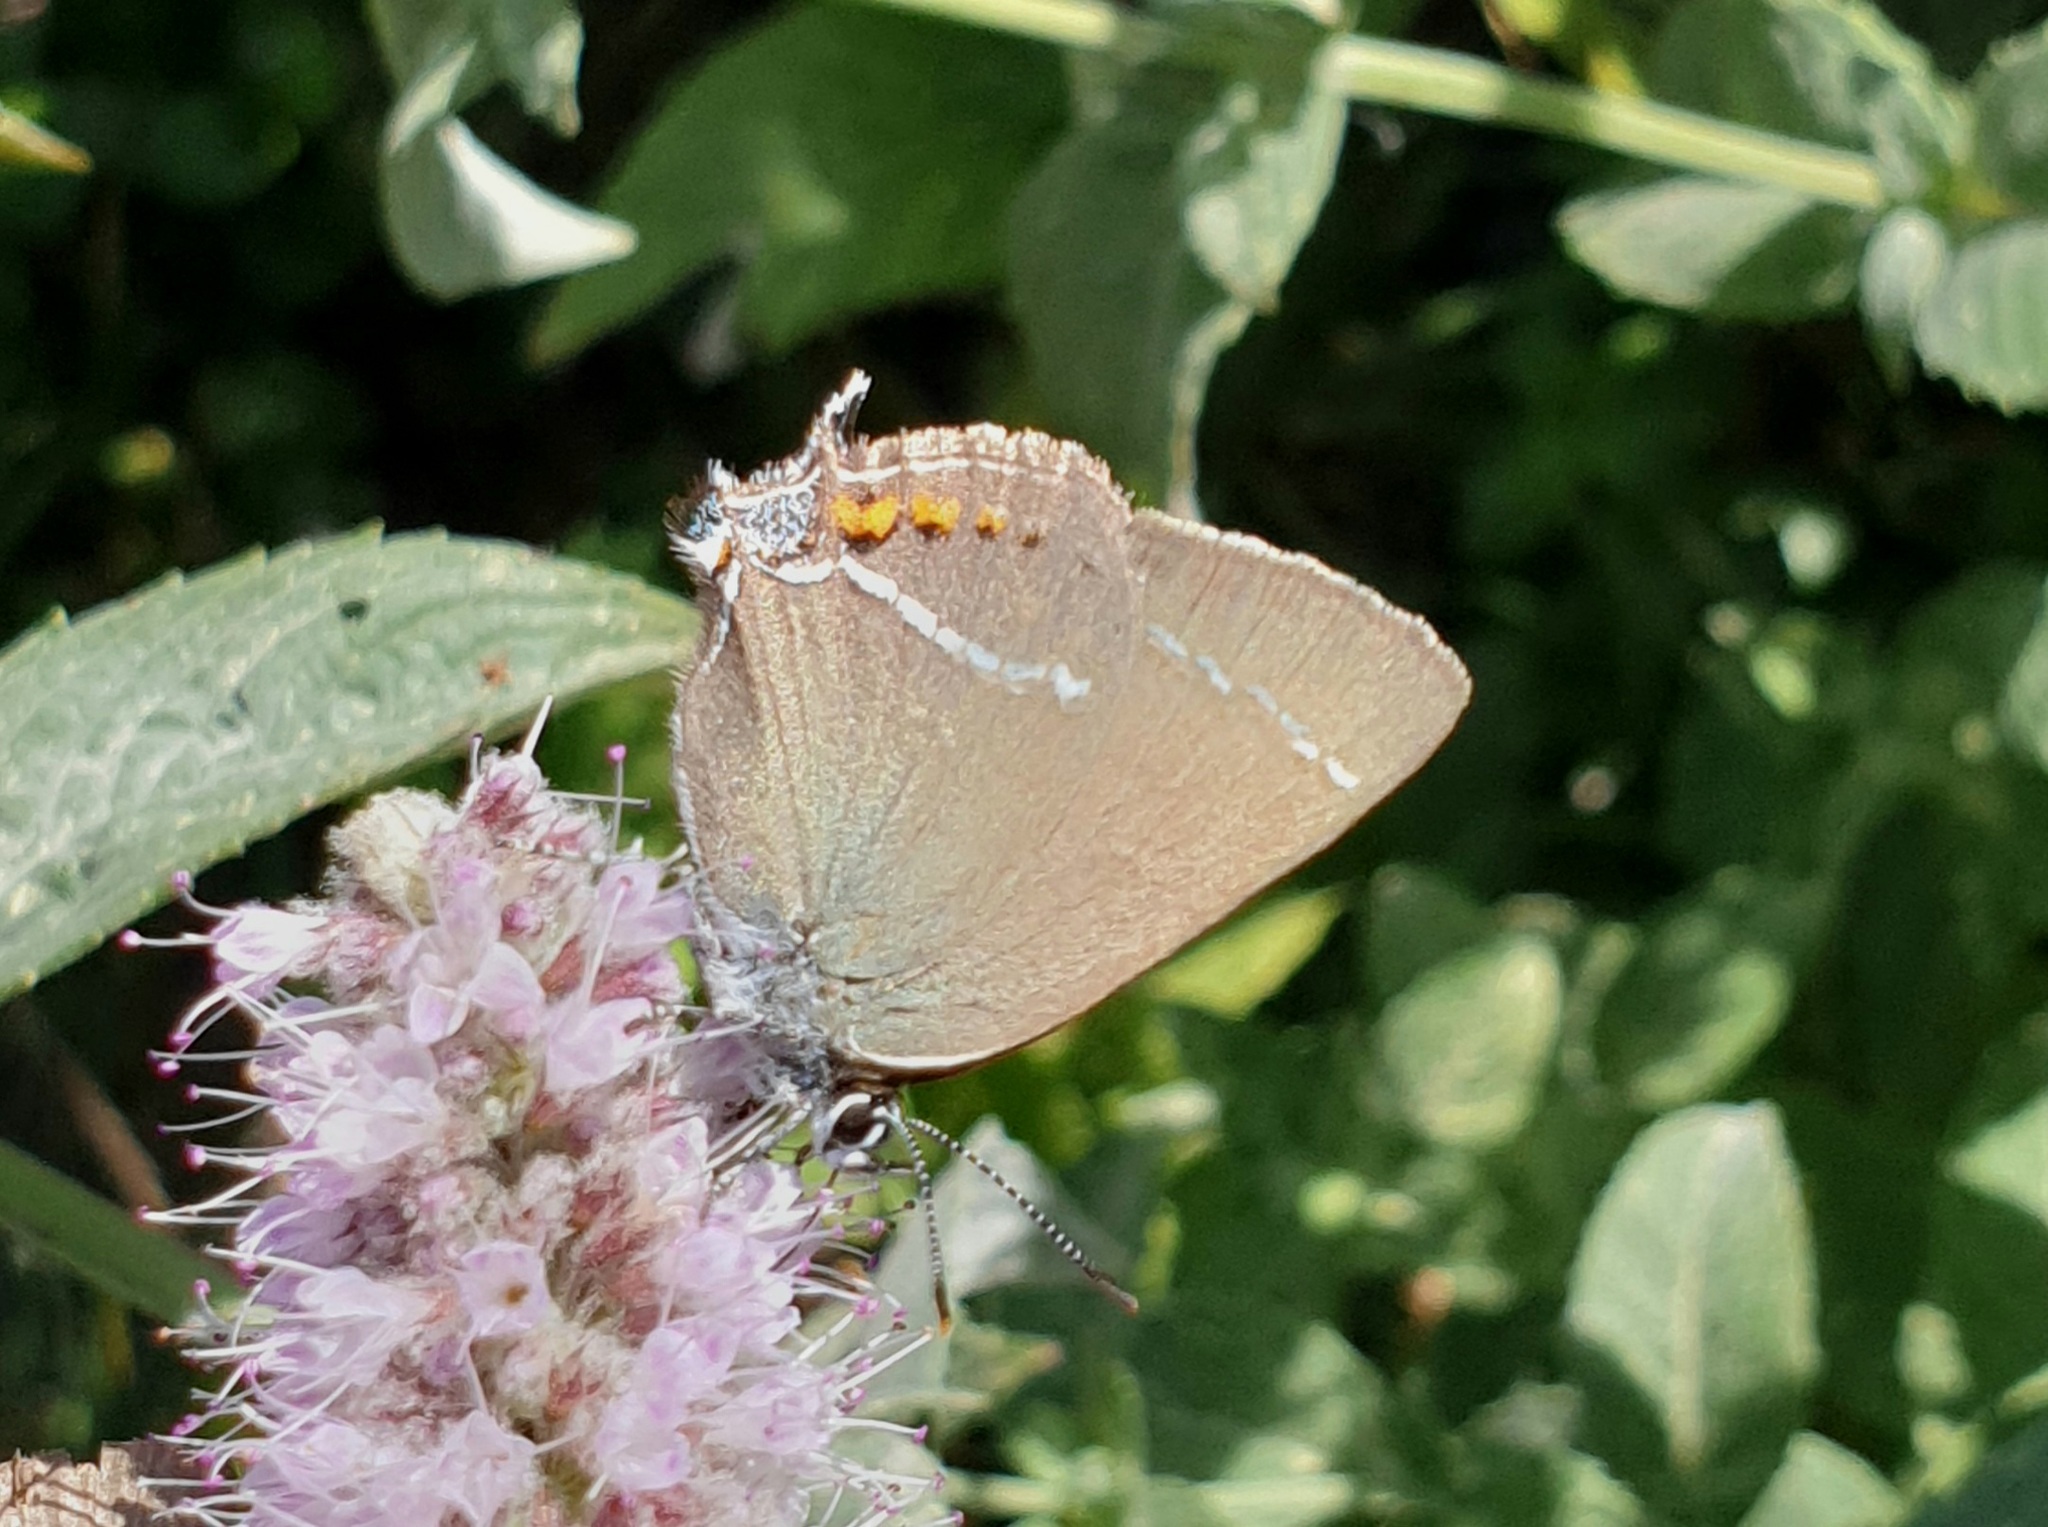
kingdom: Animalia
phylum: Arthropoda
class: Insecta
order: Lepidoptera
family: Lycaenidae
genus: Tuttiola
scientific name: Tuttiola spini
